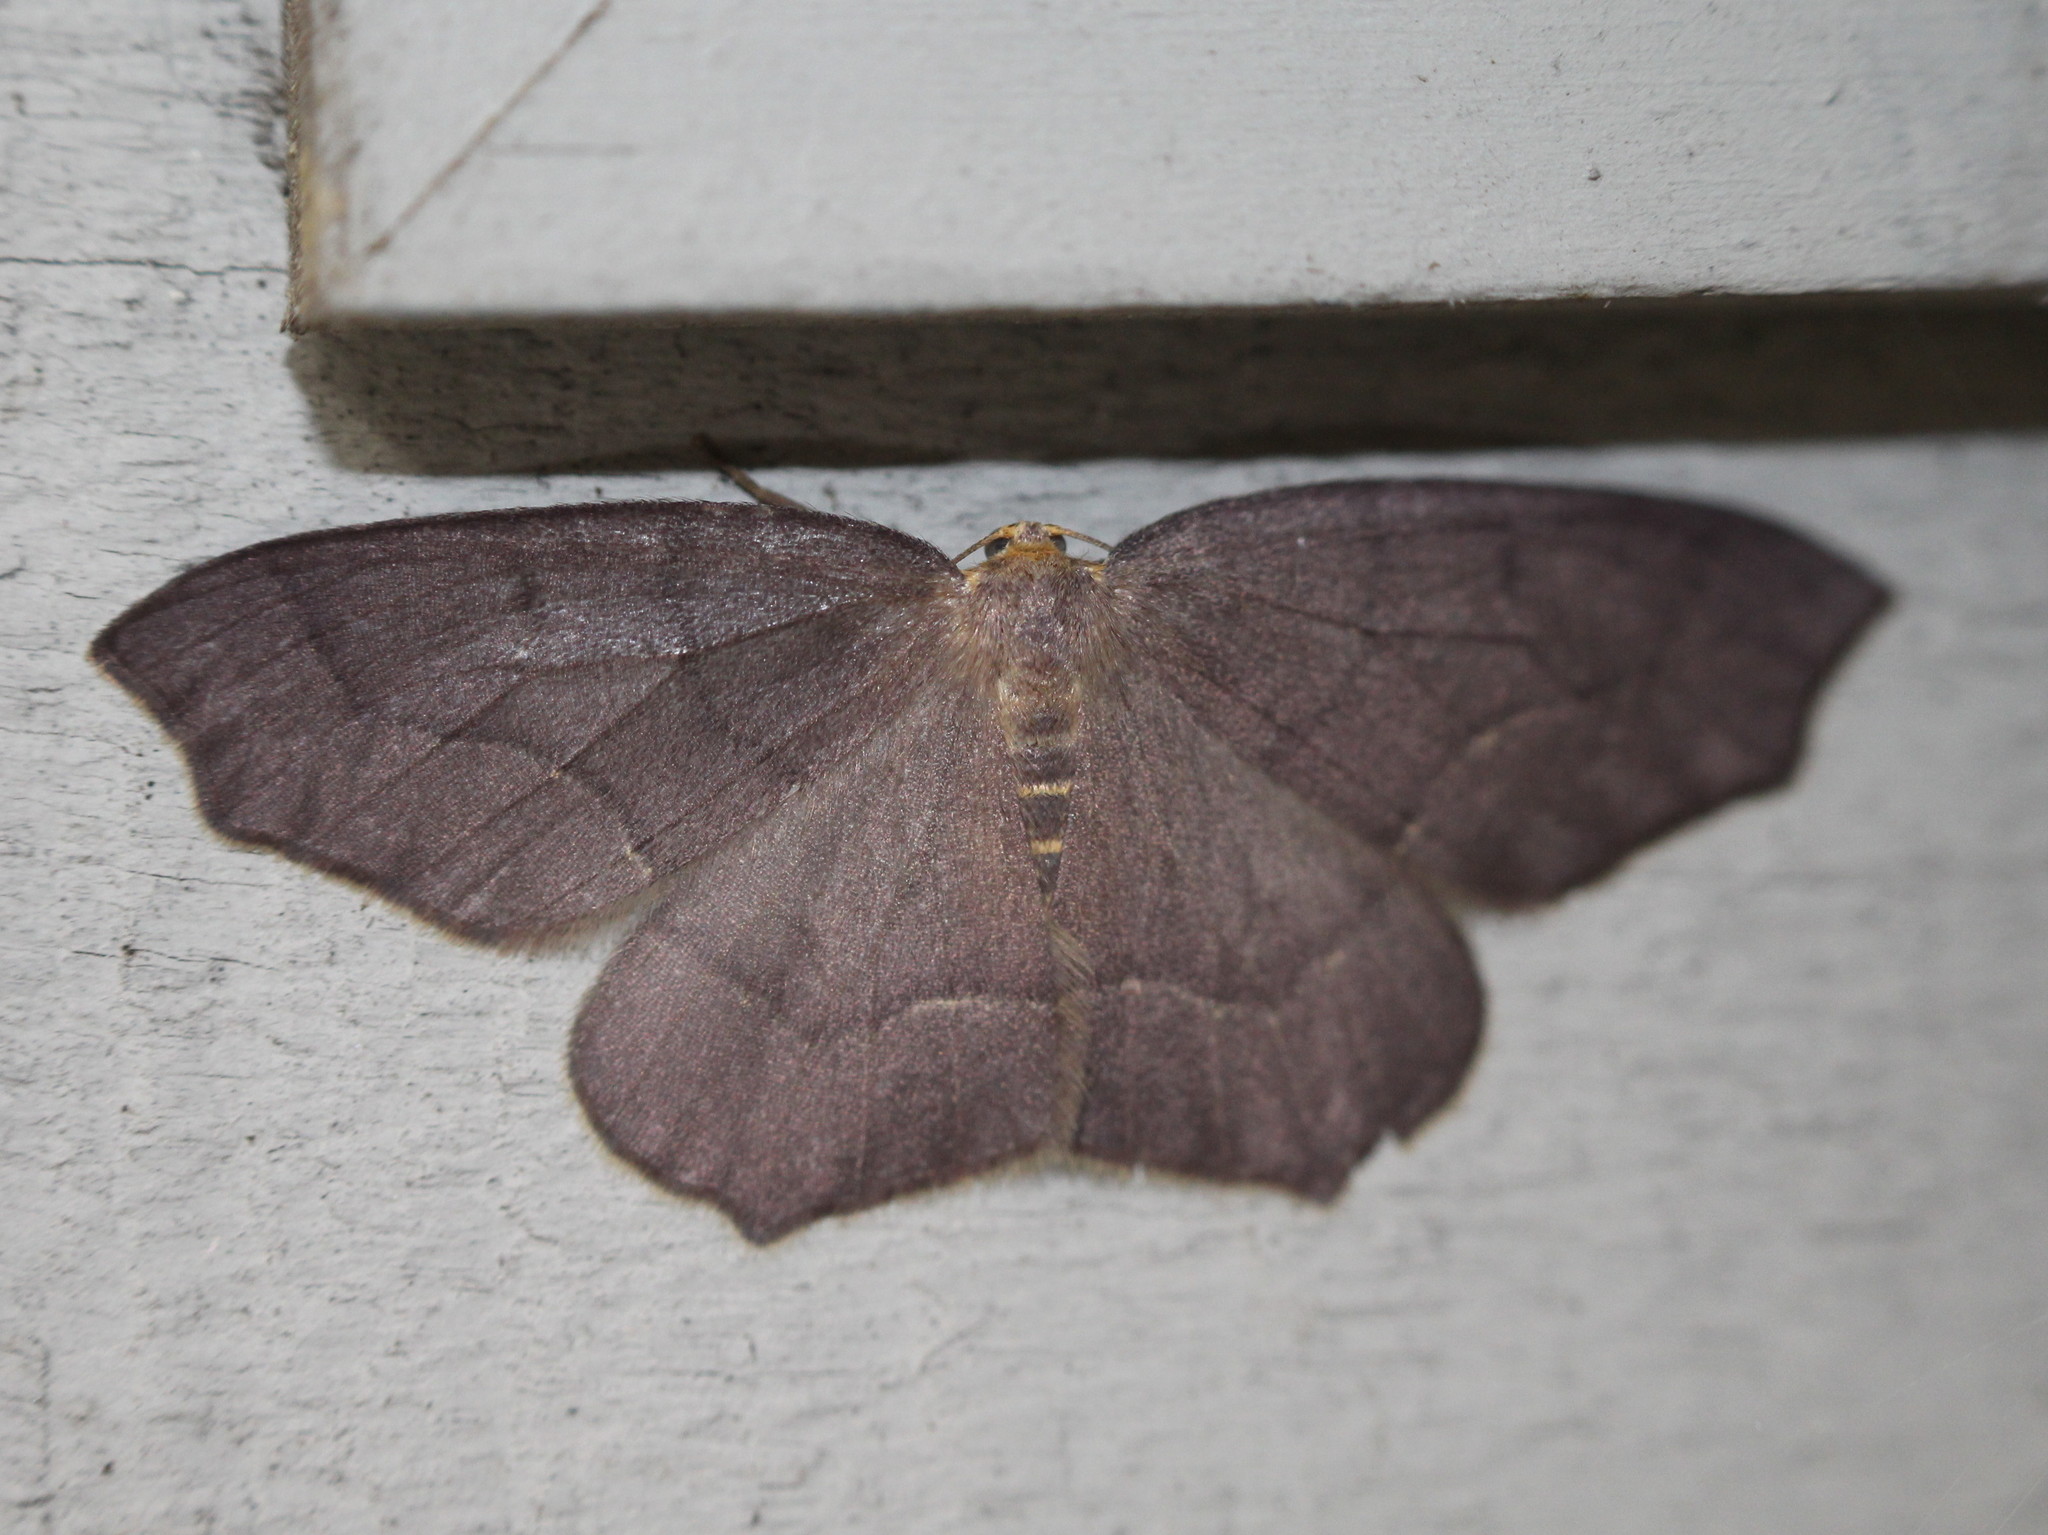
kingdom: Animalia
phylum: Arthropoda
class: Insecta
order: Lepidoptera
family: Geometridae
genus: Lambdina
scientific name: Lambdina fiscellaria
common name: Hemlock looper
